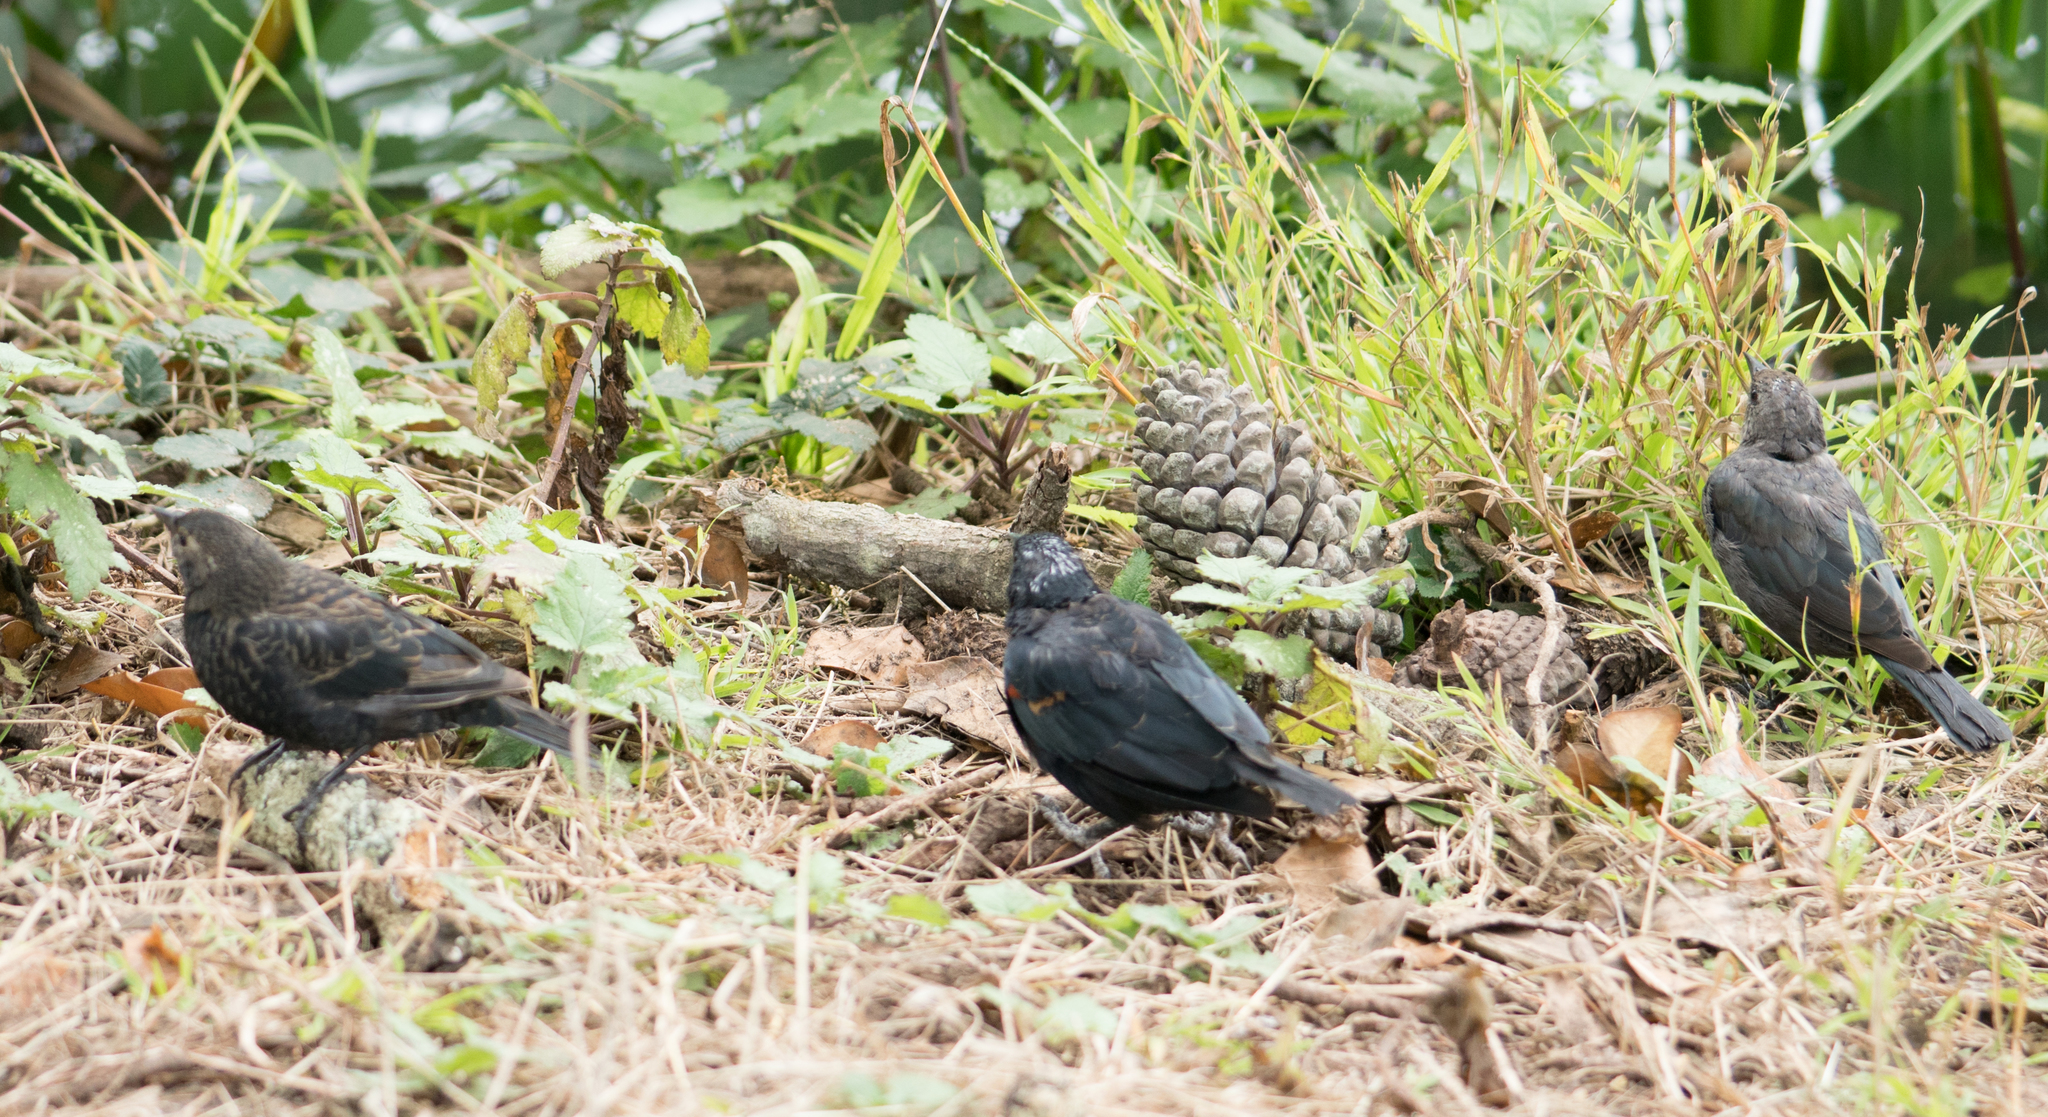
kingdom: Animalia
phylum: Chordata
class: Aves
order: Passeriformes
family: Icteridae
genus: Agelaius
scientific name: Agelaius phoeniceus
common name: Red-winged blackbird
